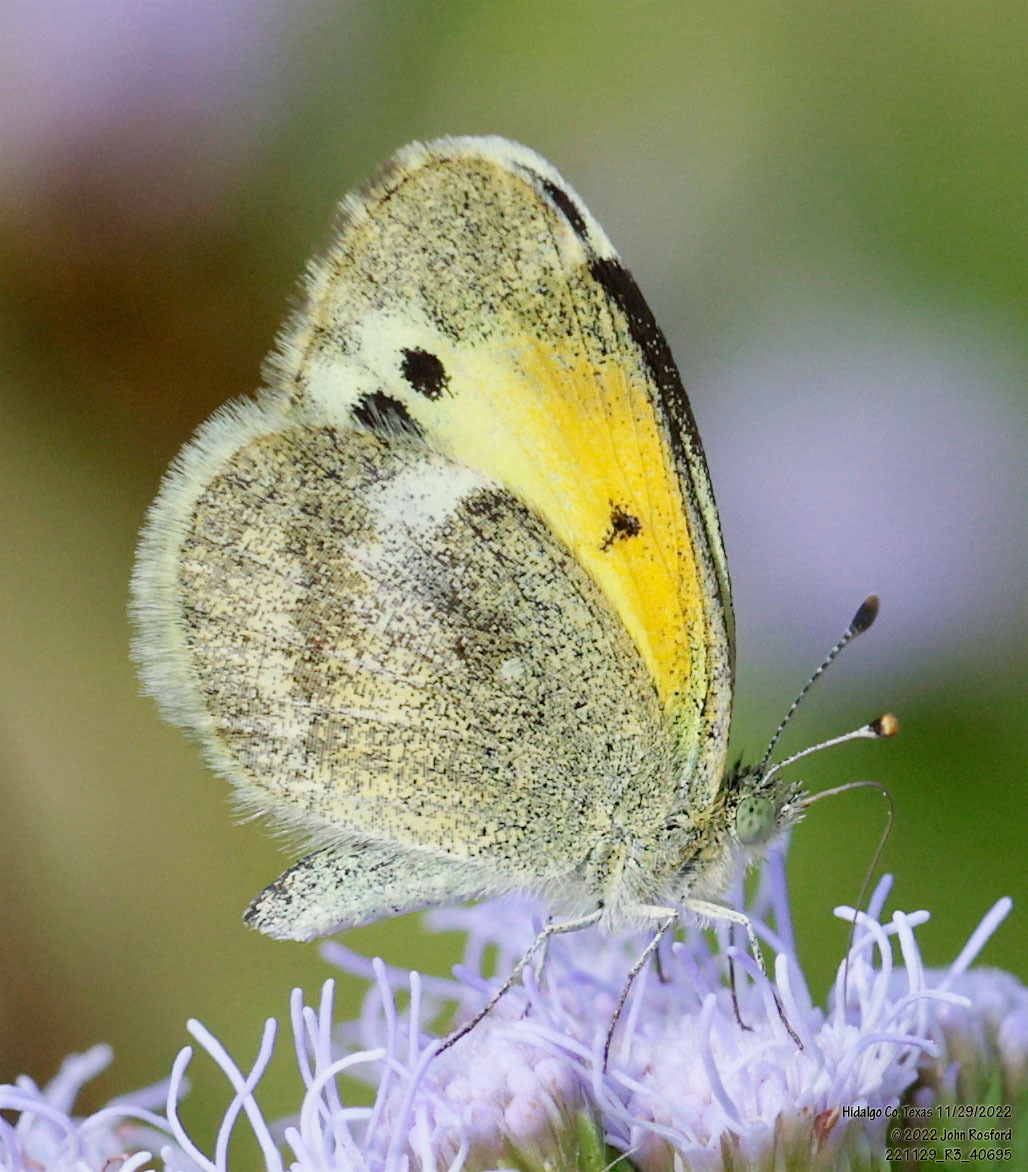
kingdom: Animalia
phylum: Arthropoda
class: Insecta
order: Lepidoptera
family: Pieridae
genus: Nathalis
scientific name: Nathalis iole
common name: Dainty sulphur
